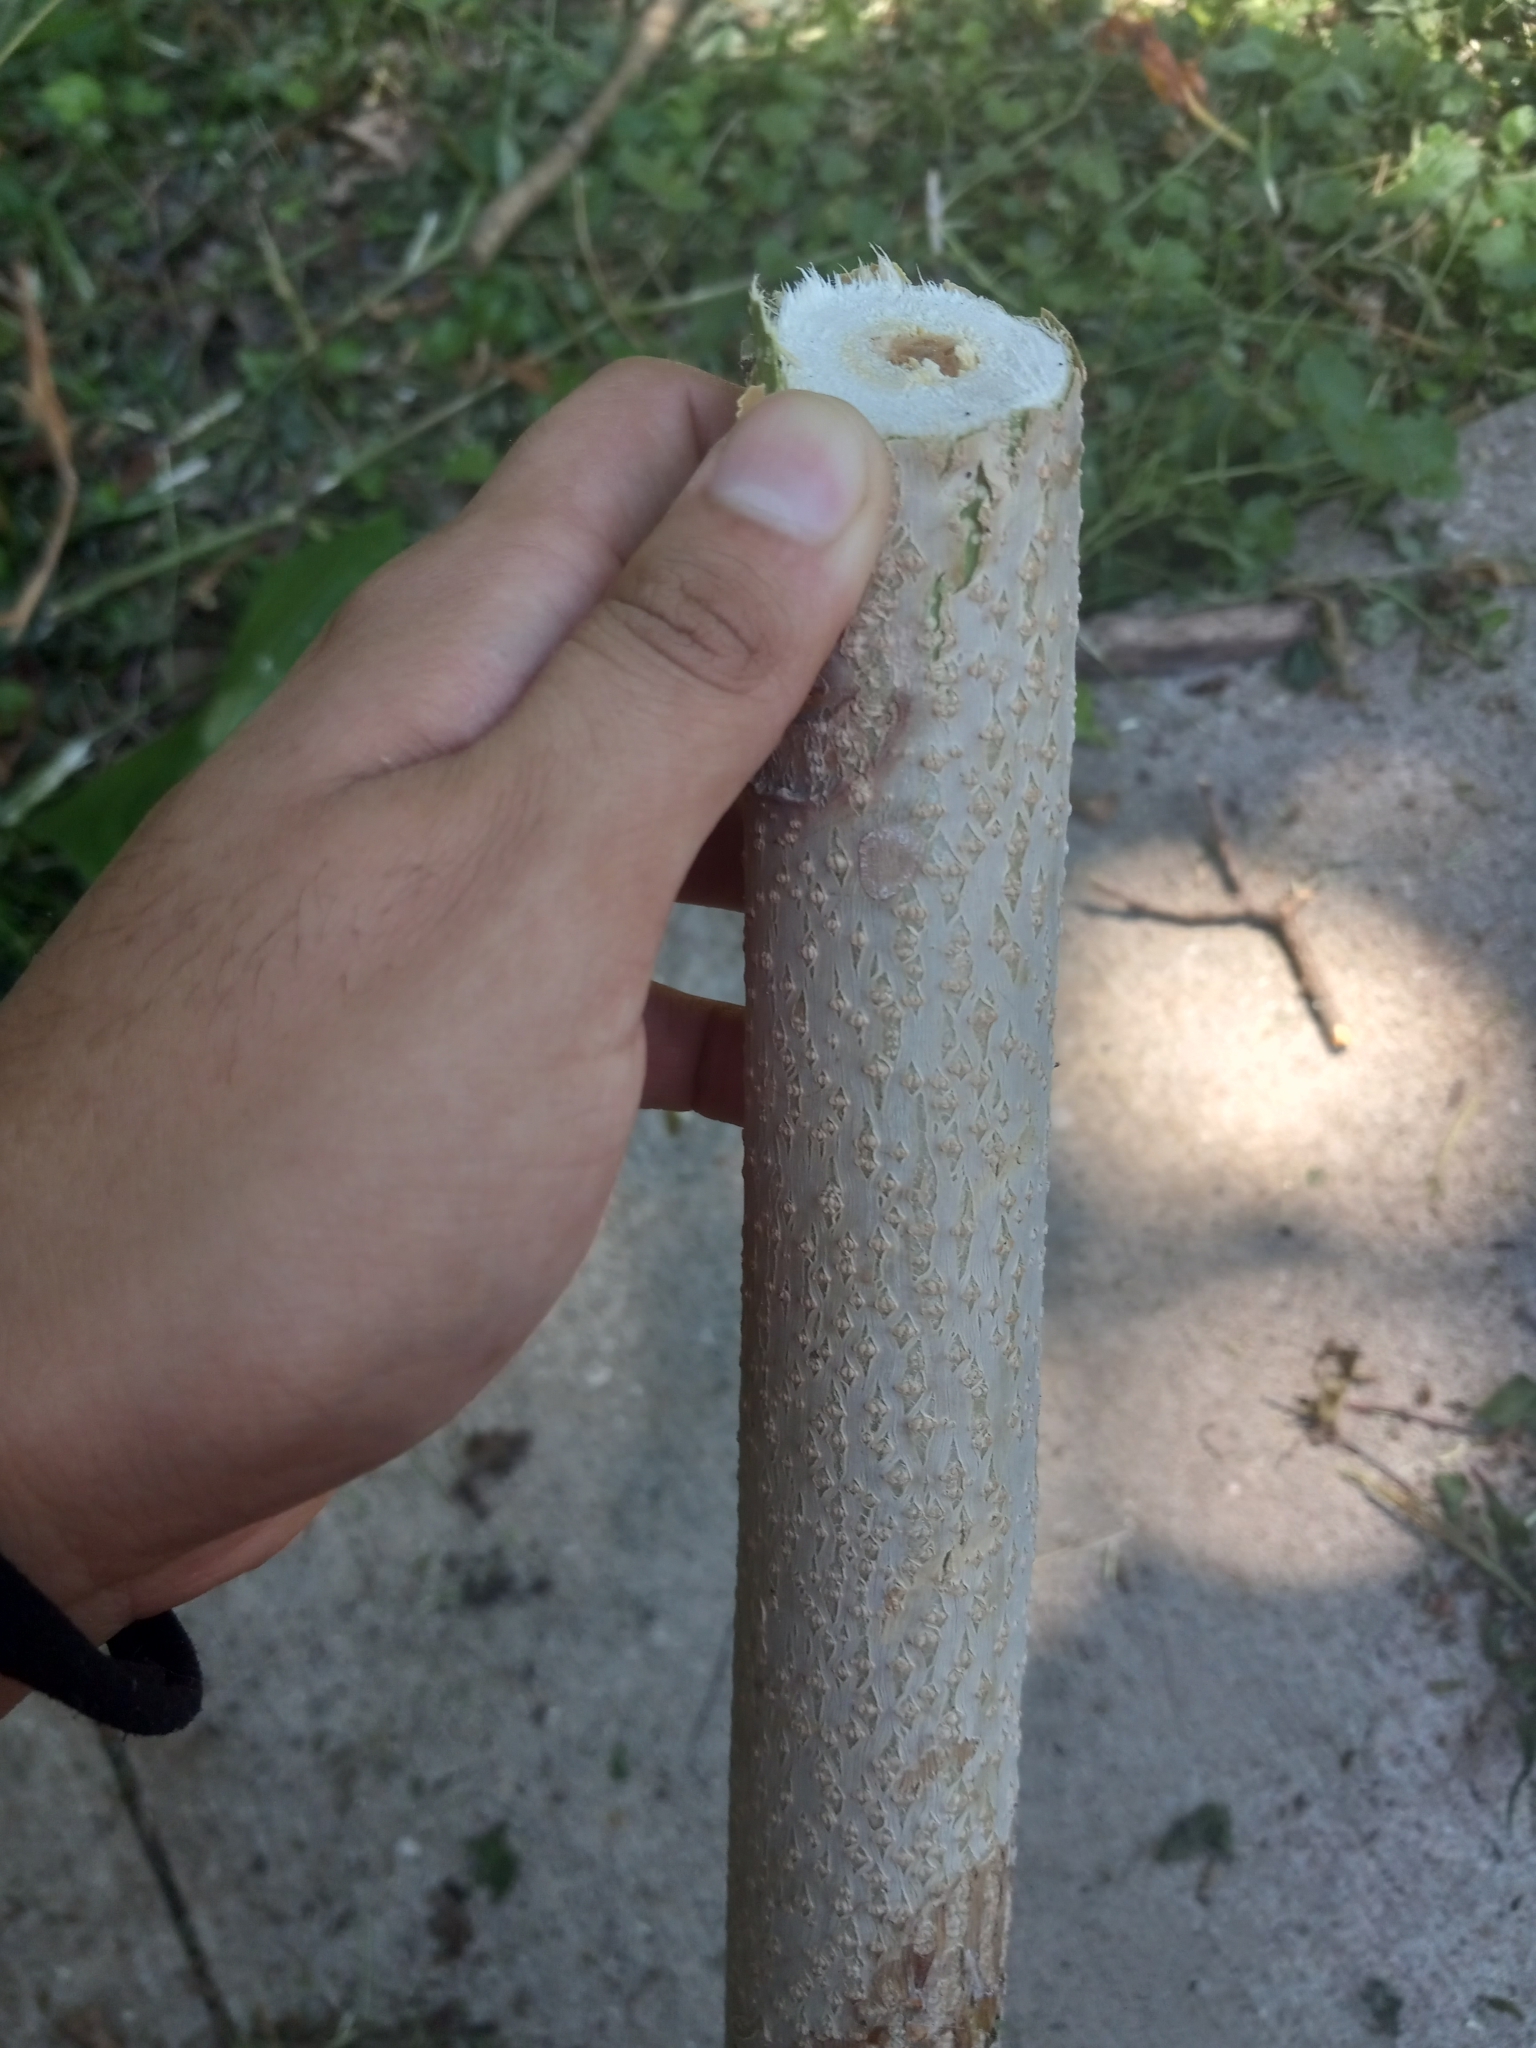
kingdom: Plantae
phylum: Tracheophyta
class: Magnoliopsida
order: Sapindales
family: Simaroubaceae
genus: Ailanthus
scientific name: Ailanthus altissima
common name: Tree-of-heaven
